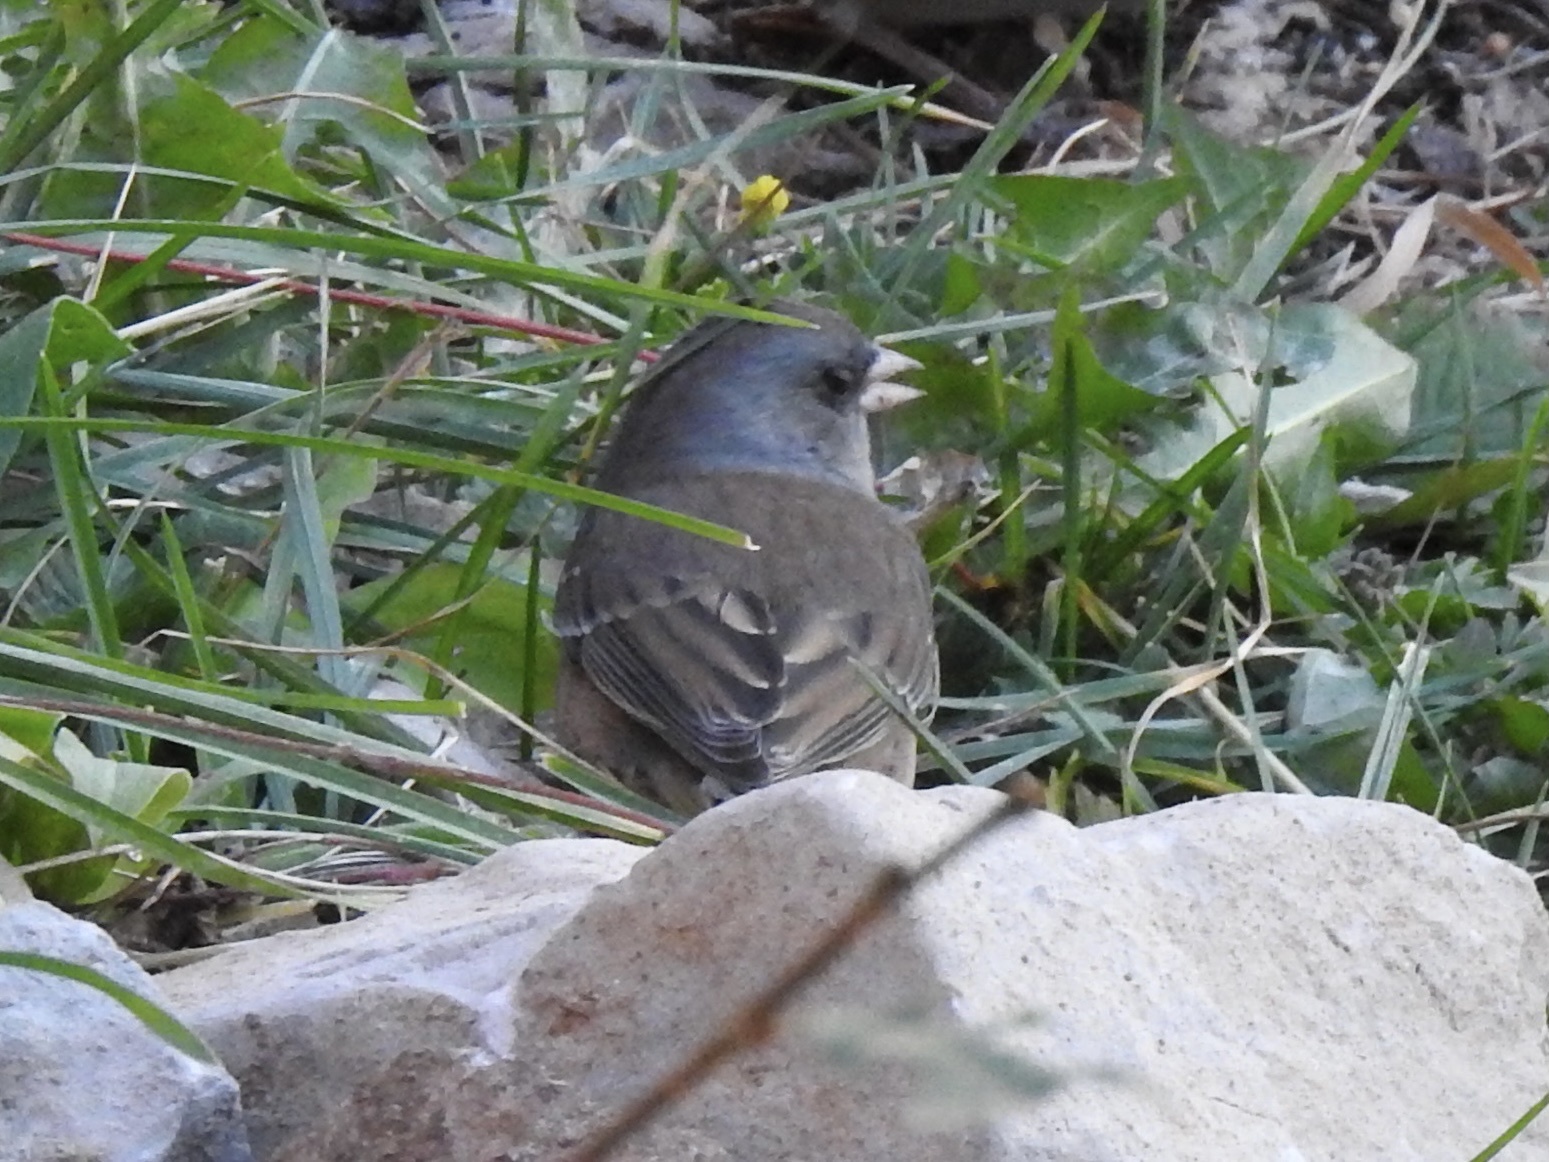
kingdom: Animalia
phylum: Chordata
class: Aves
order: Passeriformes
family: Passerellidae
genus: Junco
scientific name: Junco hyemalis
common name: Dark-eyed junco
